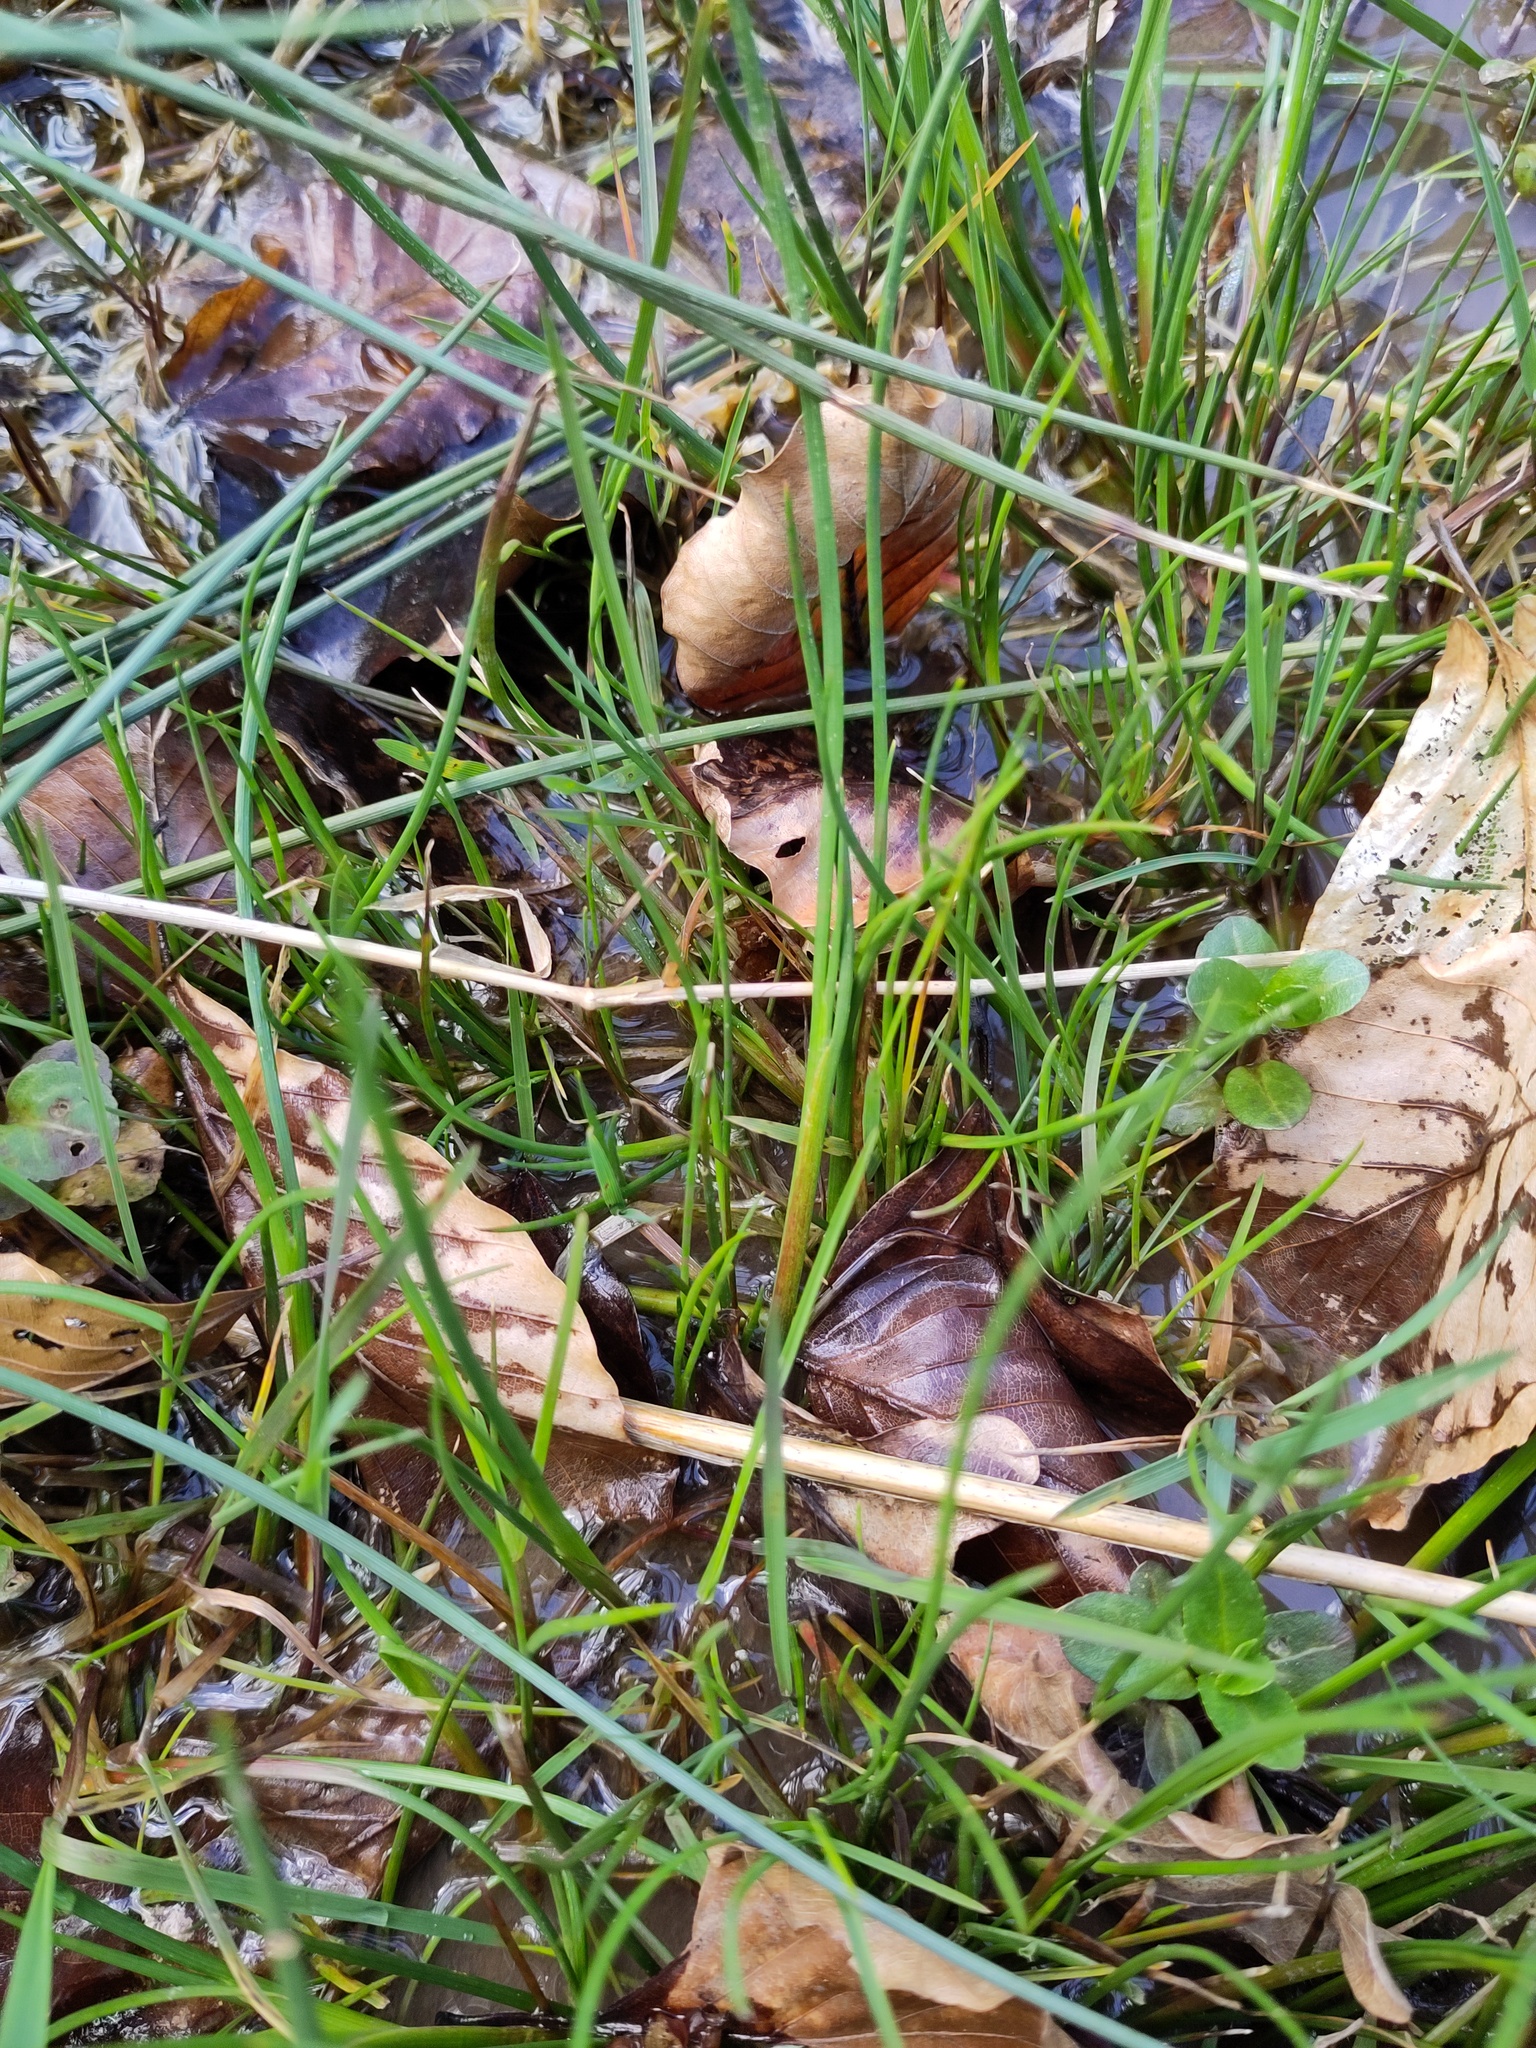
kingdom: Plantae
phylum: Tracheophyta
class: Liliopsida
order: Poales
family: Juncaceae
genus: Juncus
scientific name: Juncus articulatus
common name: Jointed rush
